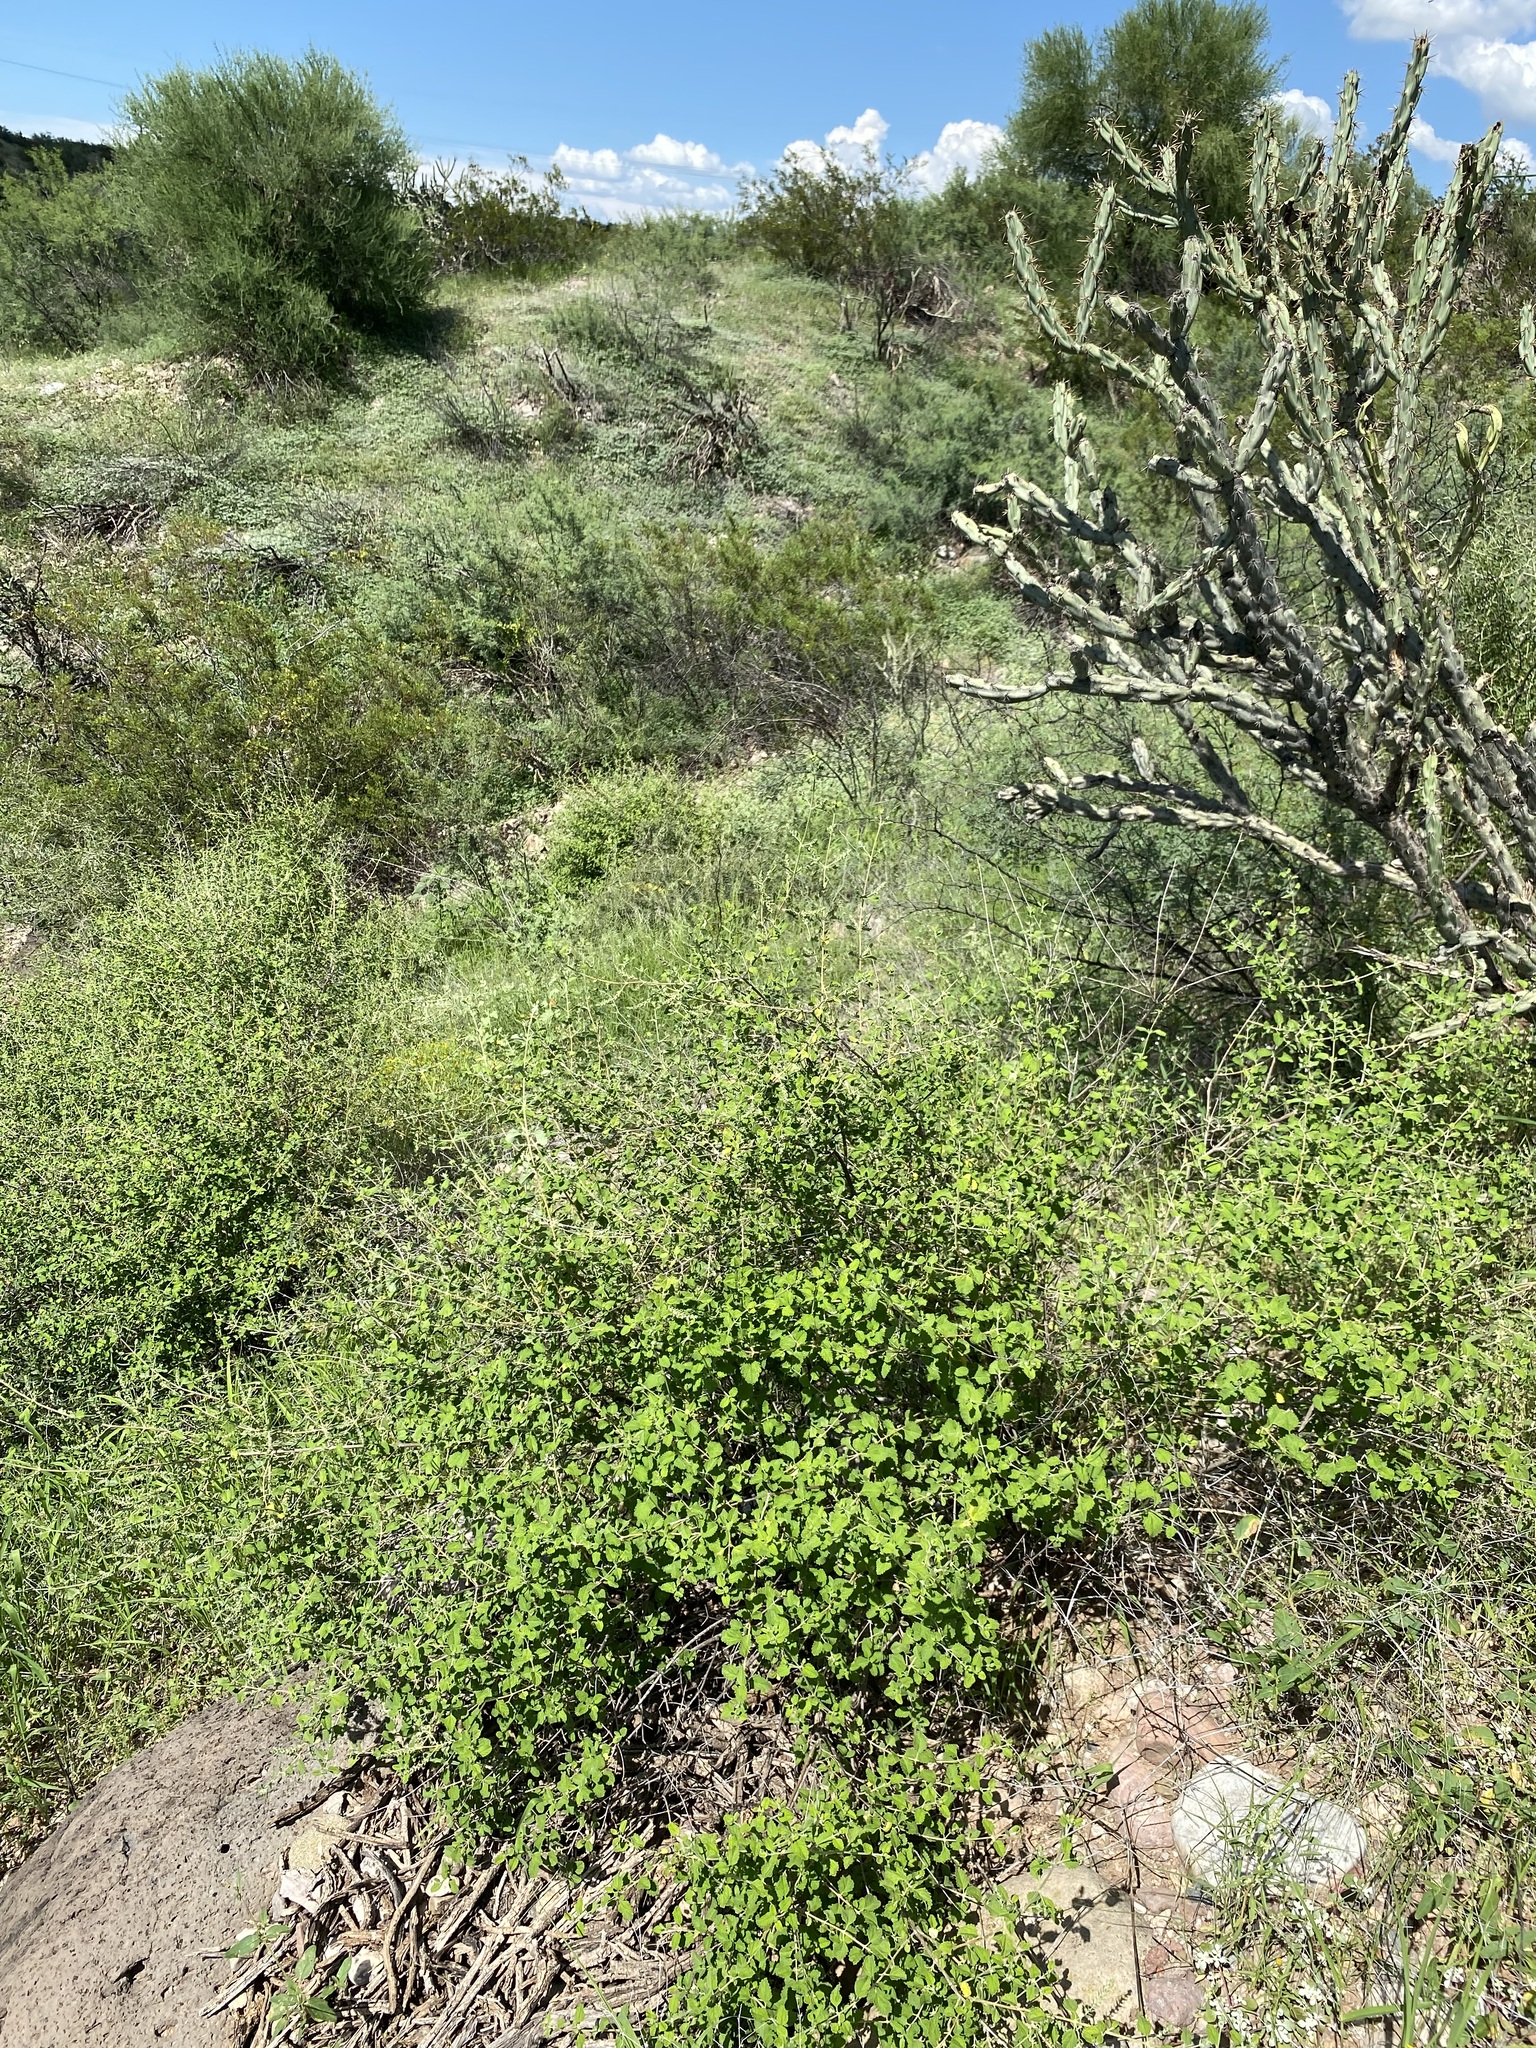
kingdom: Plantae
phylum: Tracheophyta
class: Magnoliopsida
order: Lamiales
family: Verbenaceae
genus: Aloysia
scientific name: Aloysia wrightii
